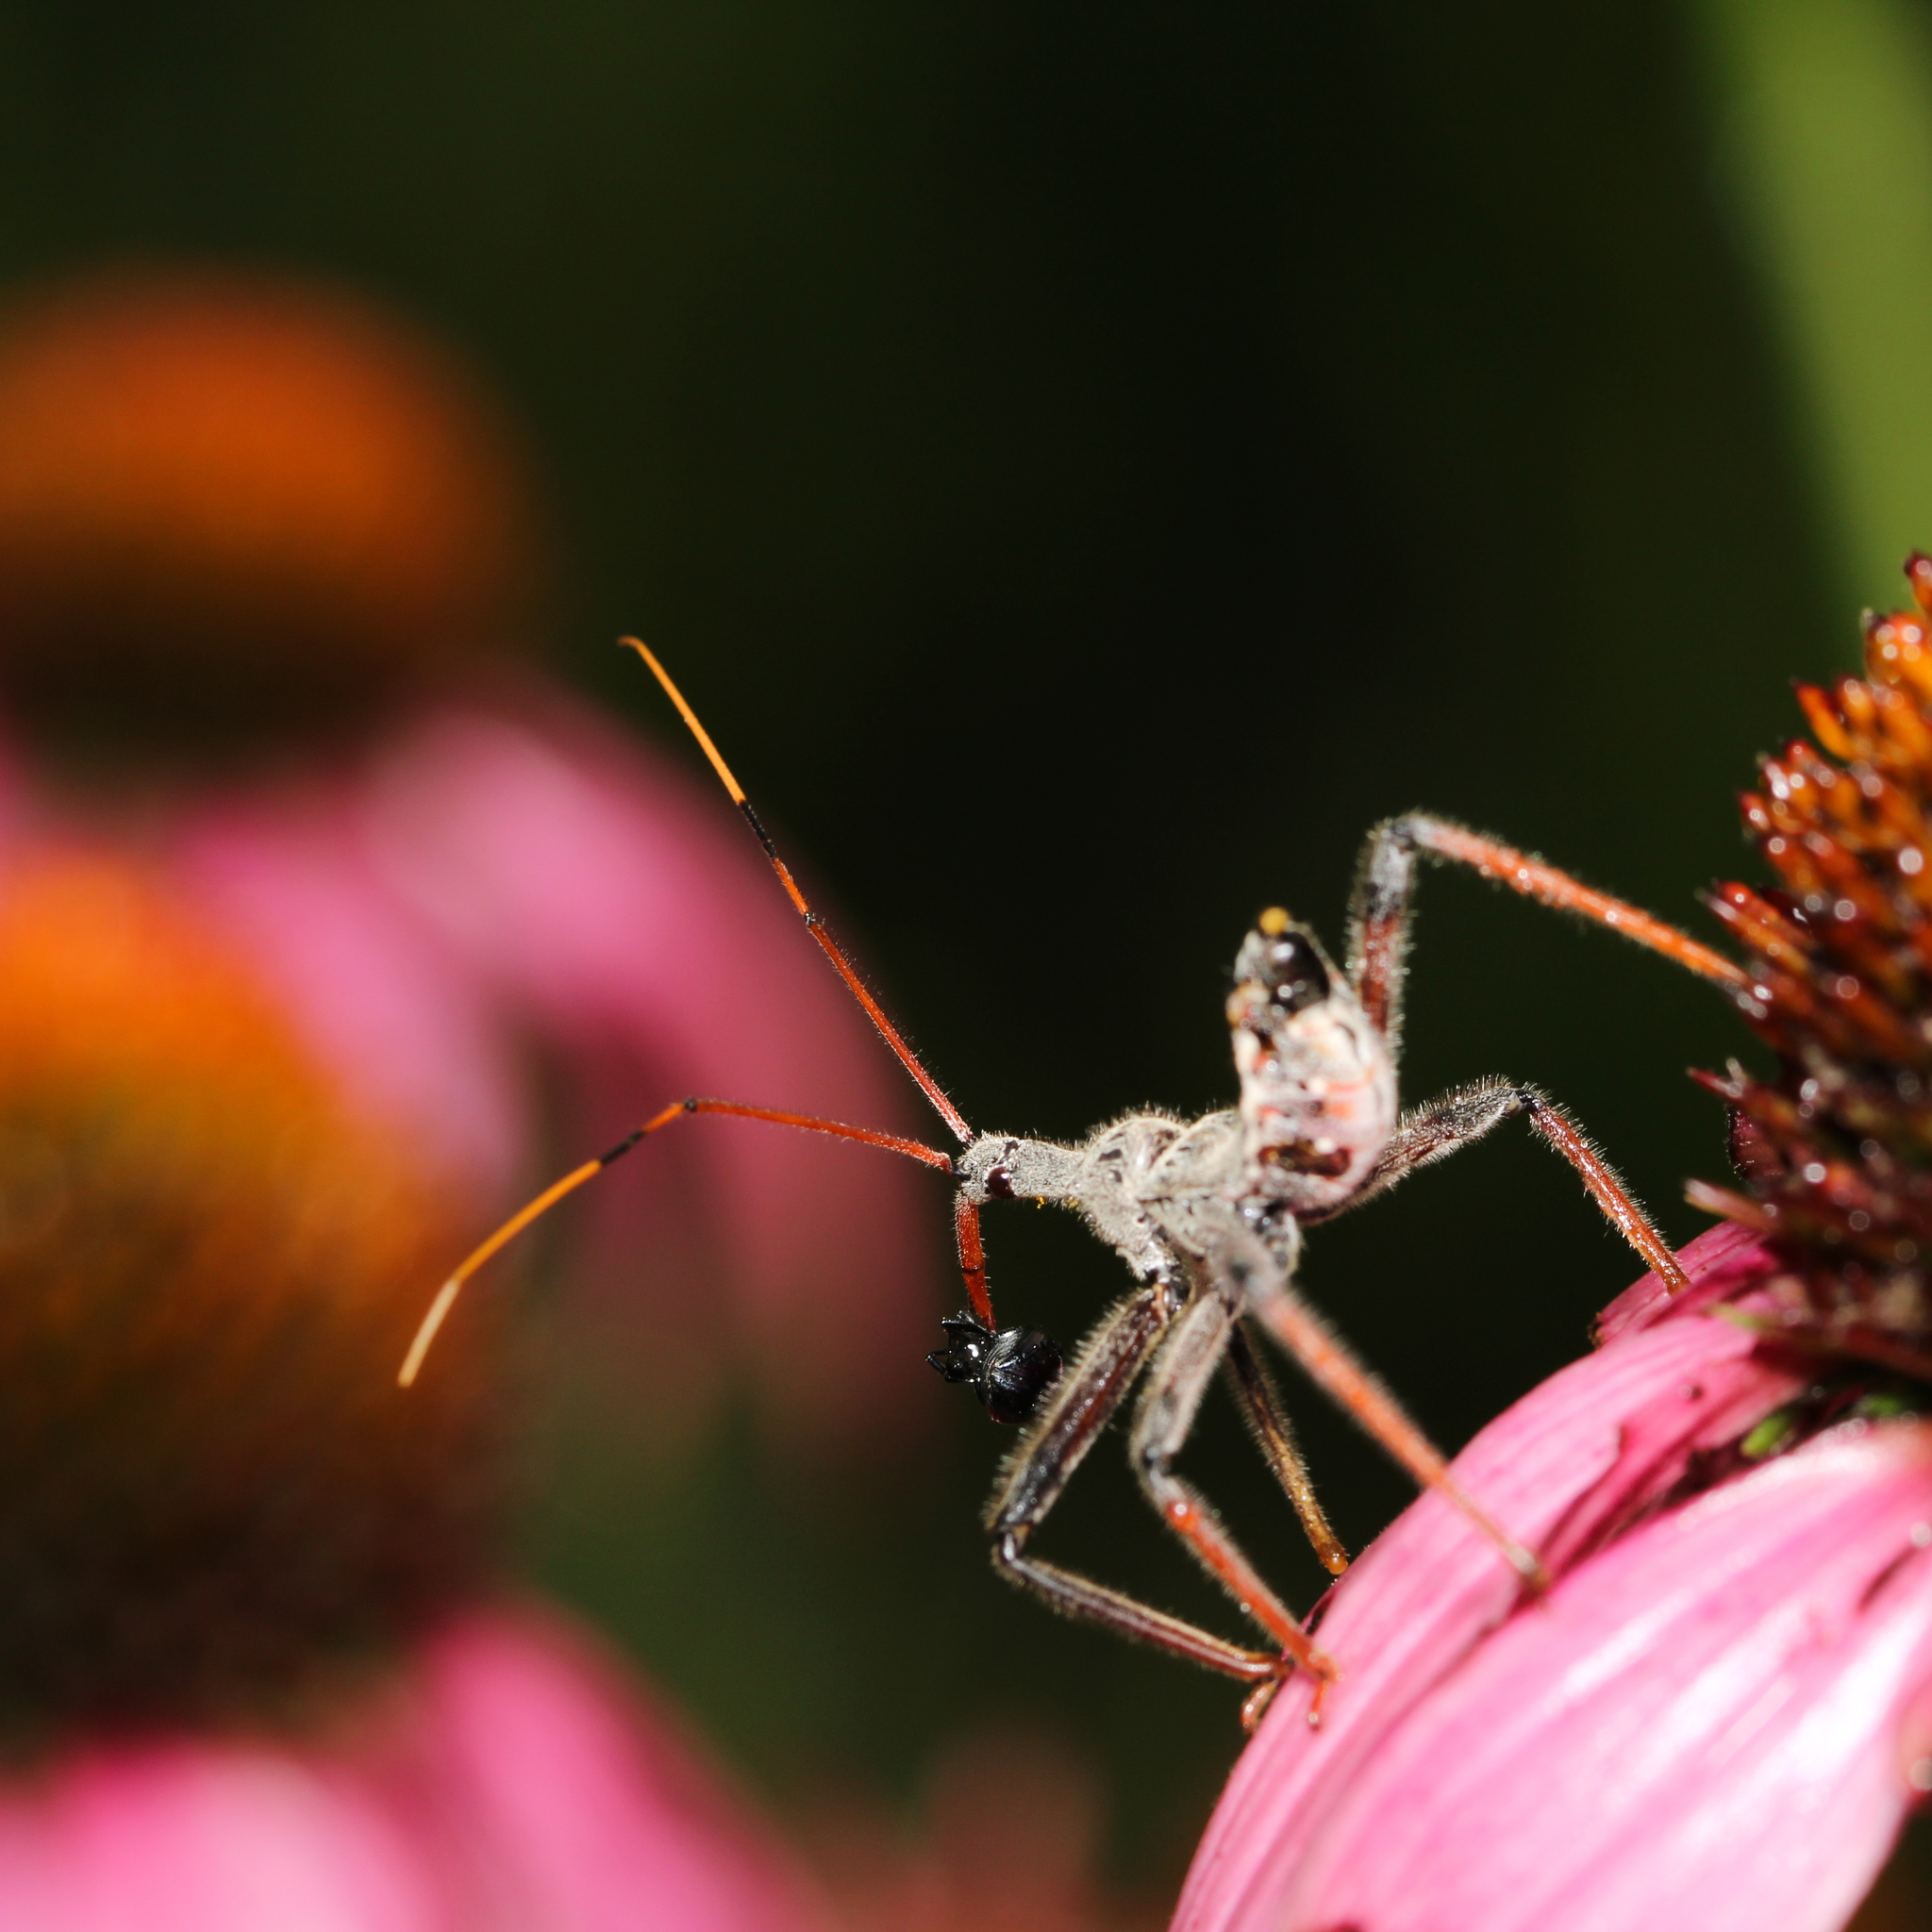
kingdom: Animalia
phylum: Arthropoda
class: Insecta
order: Hemiptera
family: Reduviidae
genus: Arilus
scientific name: Arilus cristatus
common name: North american wheel bug
